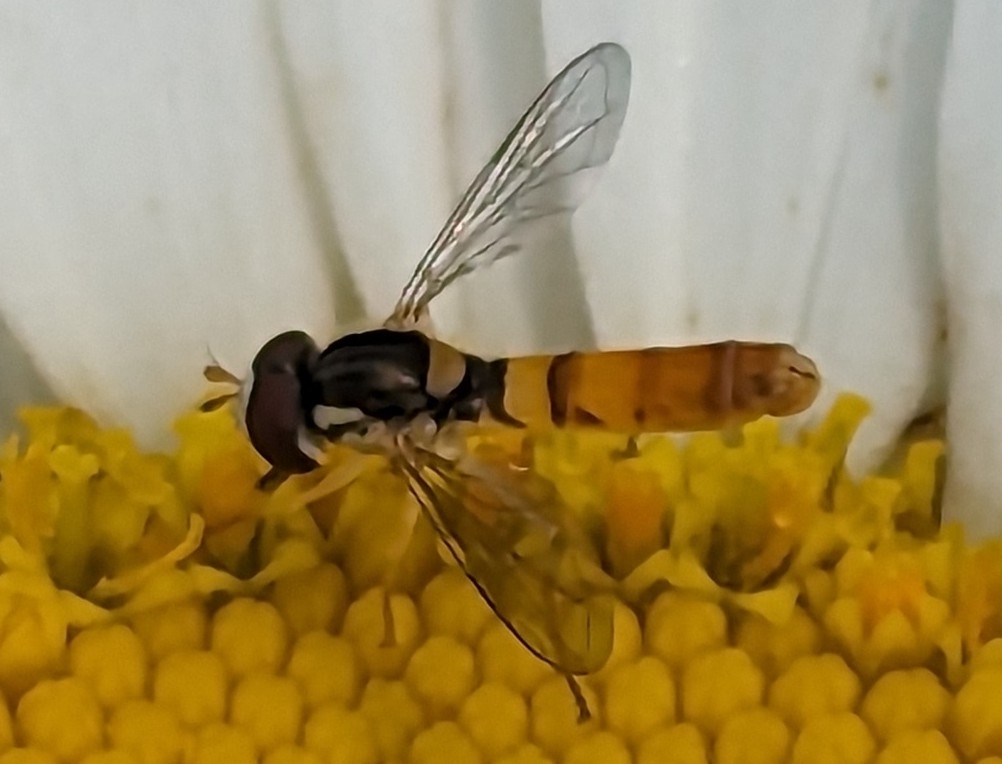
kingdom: Animalia
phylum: Arthropoda
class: Insecta
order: Diptera
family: Syrphidae
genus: Sphaerophoria
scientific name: Sphaerophoria contigua
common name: Tufted globetail
